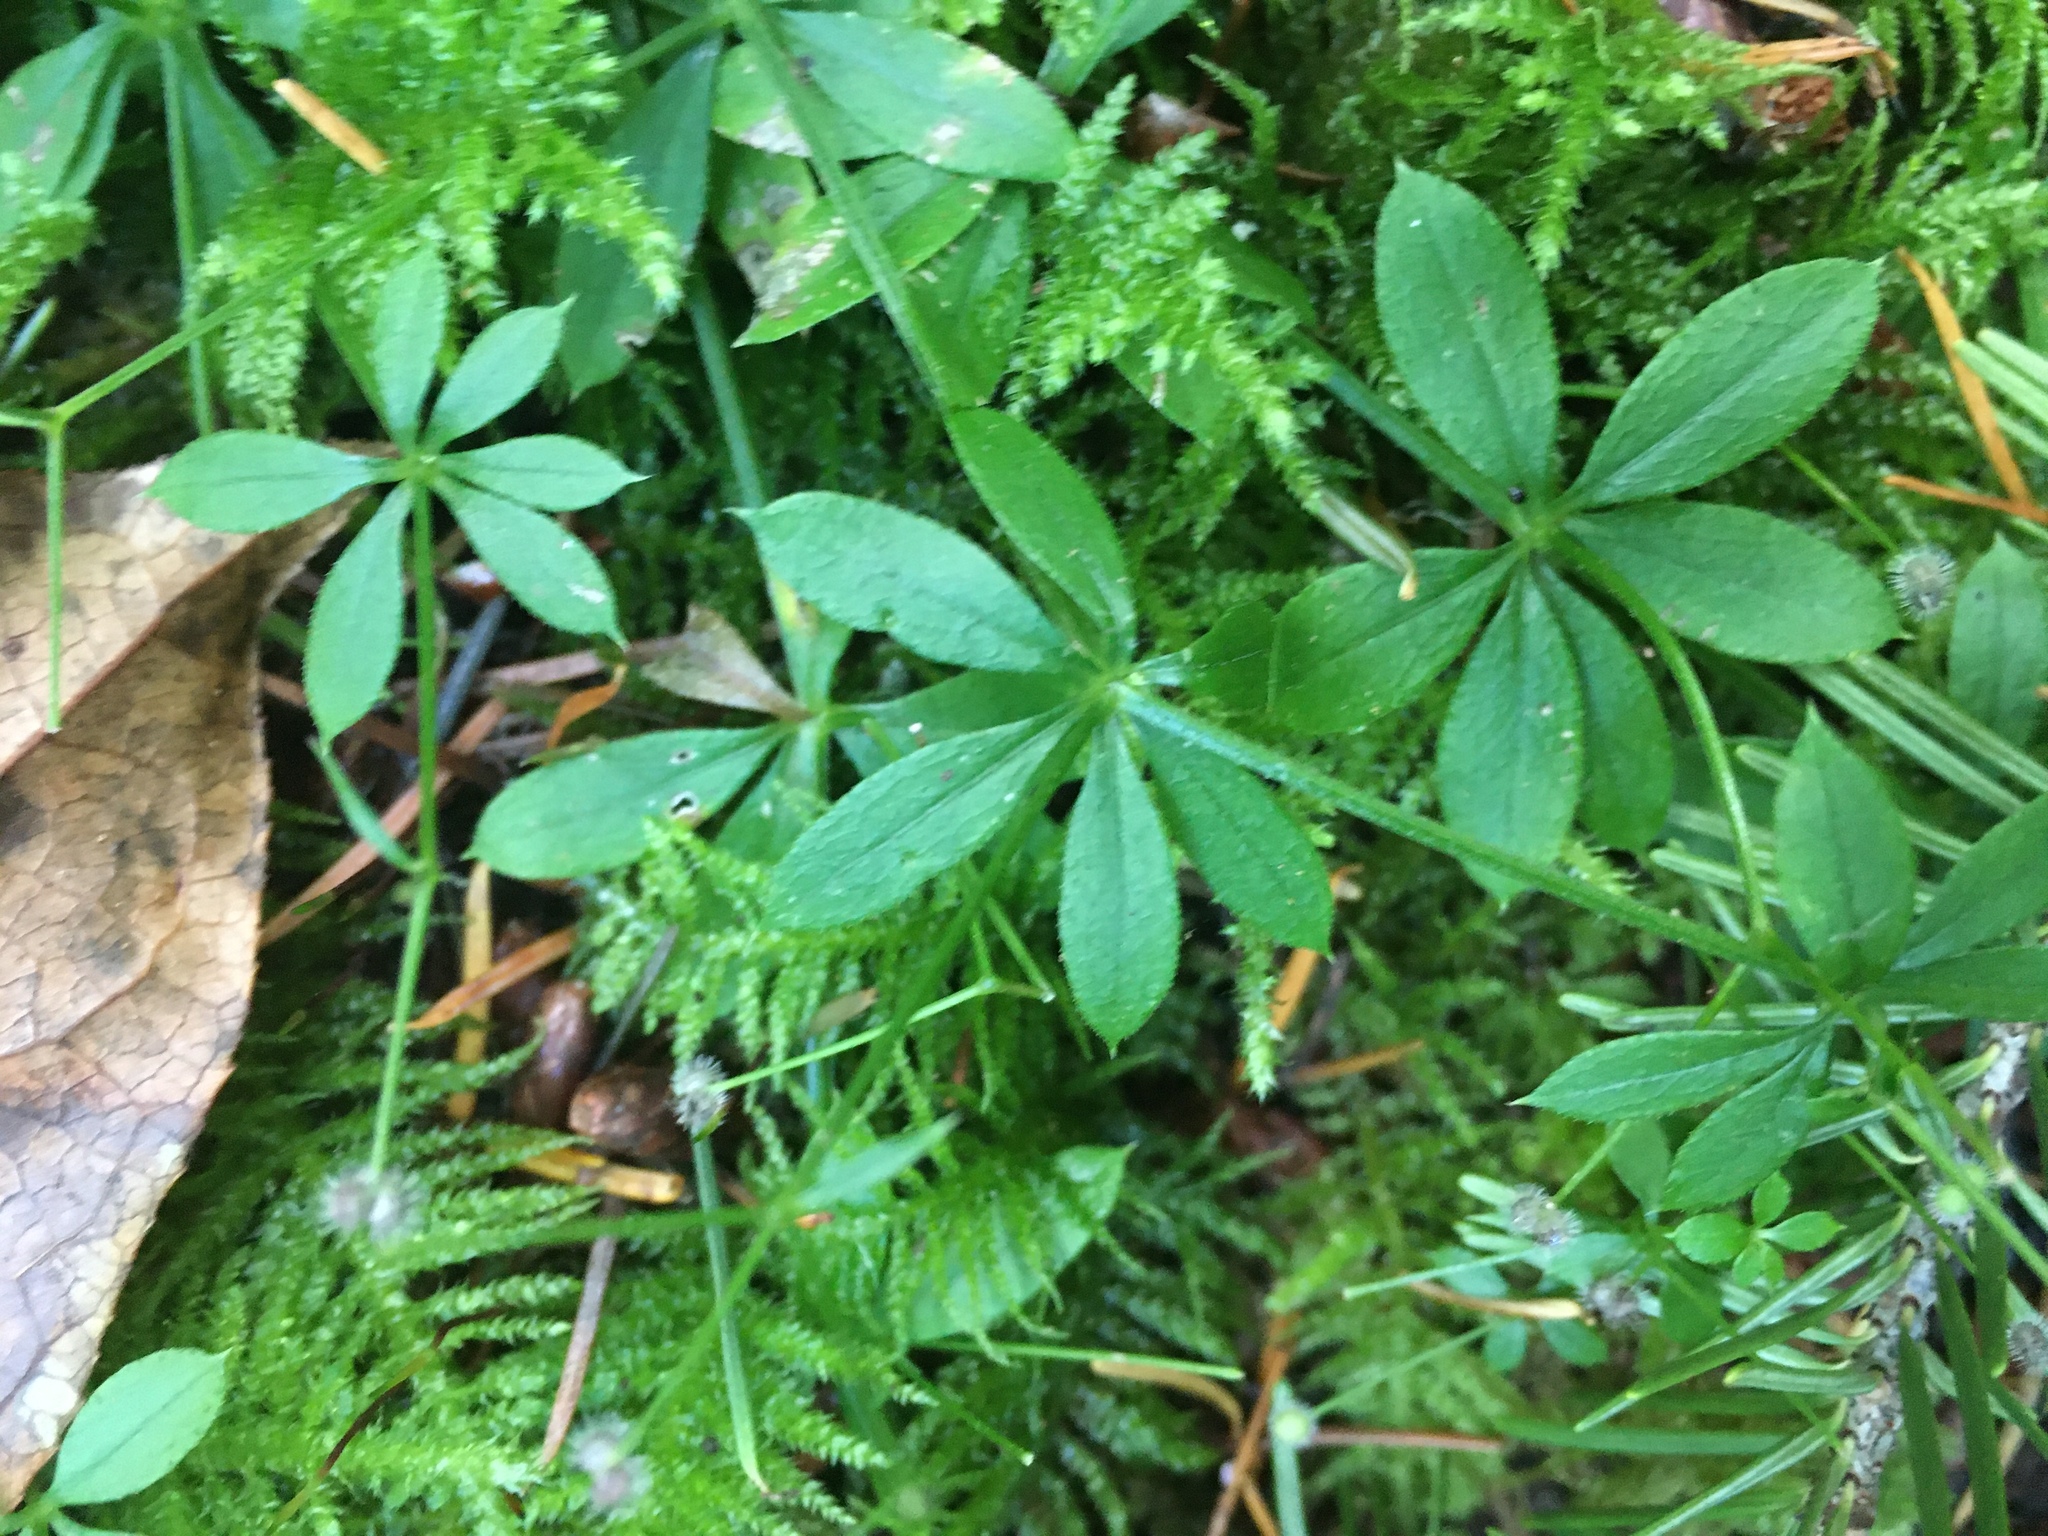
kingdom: Plantae
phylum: Tracheophyta
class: Magnoliopsida
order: Gentianales
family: Rubiaceae
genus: Galium
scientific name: Galium triflorum
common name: Fragrant bedstraw
